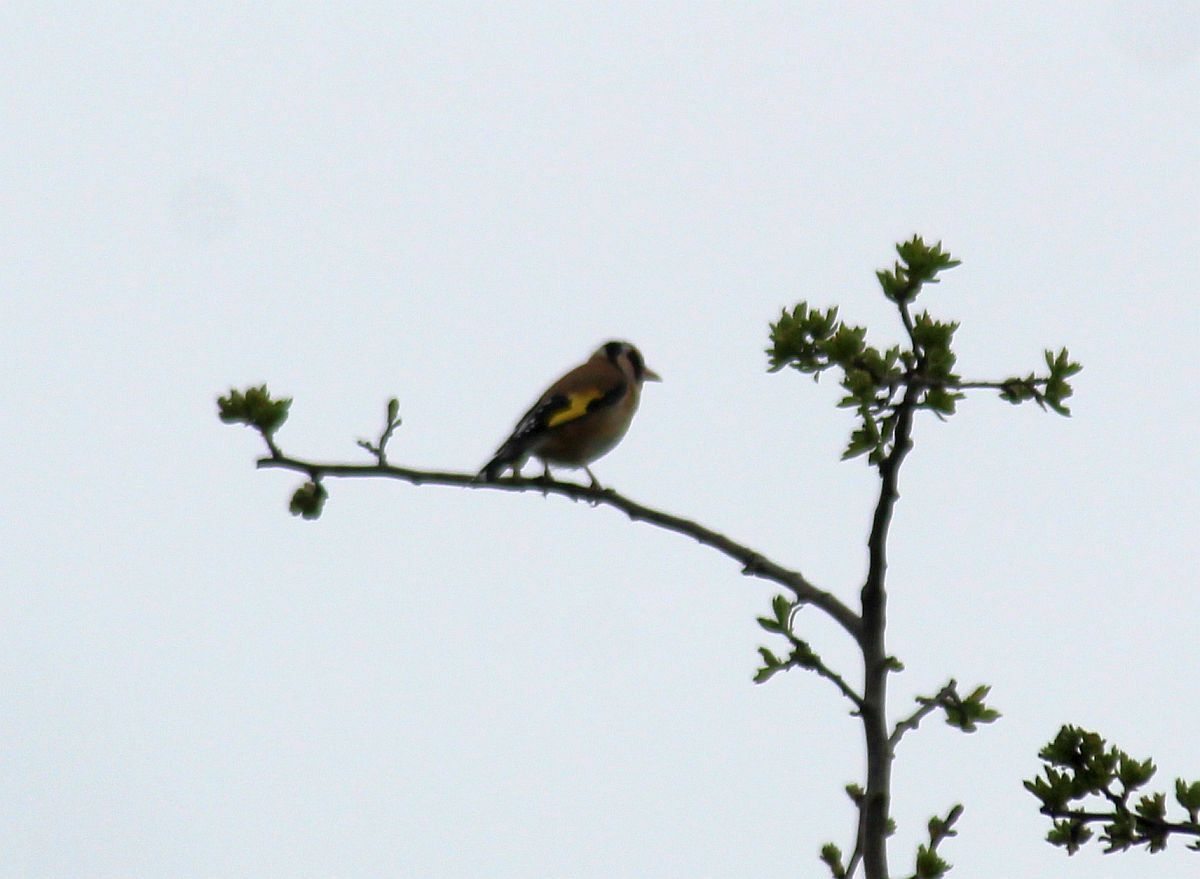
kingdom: Animalia
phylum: Chordata
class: Aves
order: Passeriformes
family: Fringillidae
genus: Carduelis
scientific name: Carduelis carduelis
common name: European goldfinch
